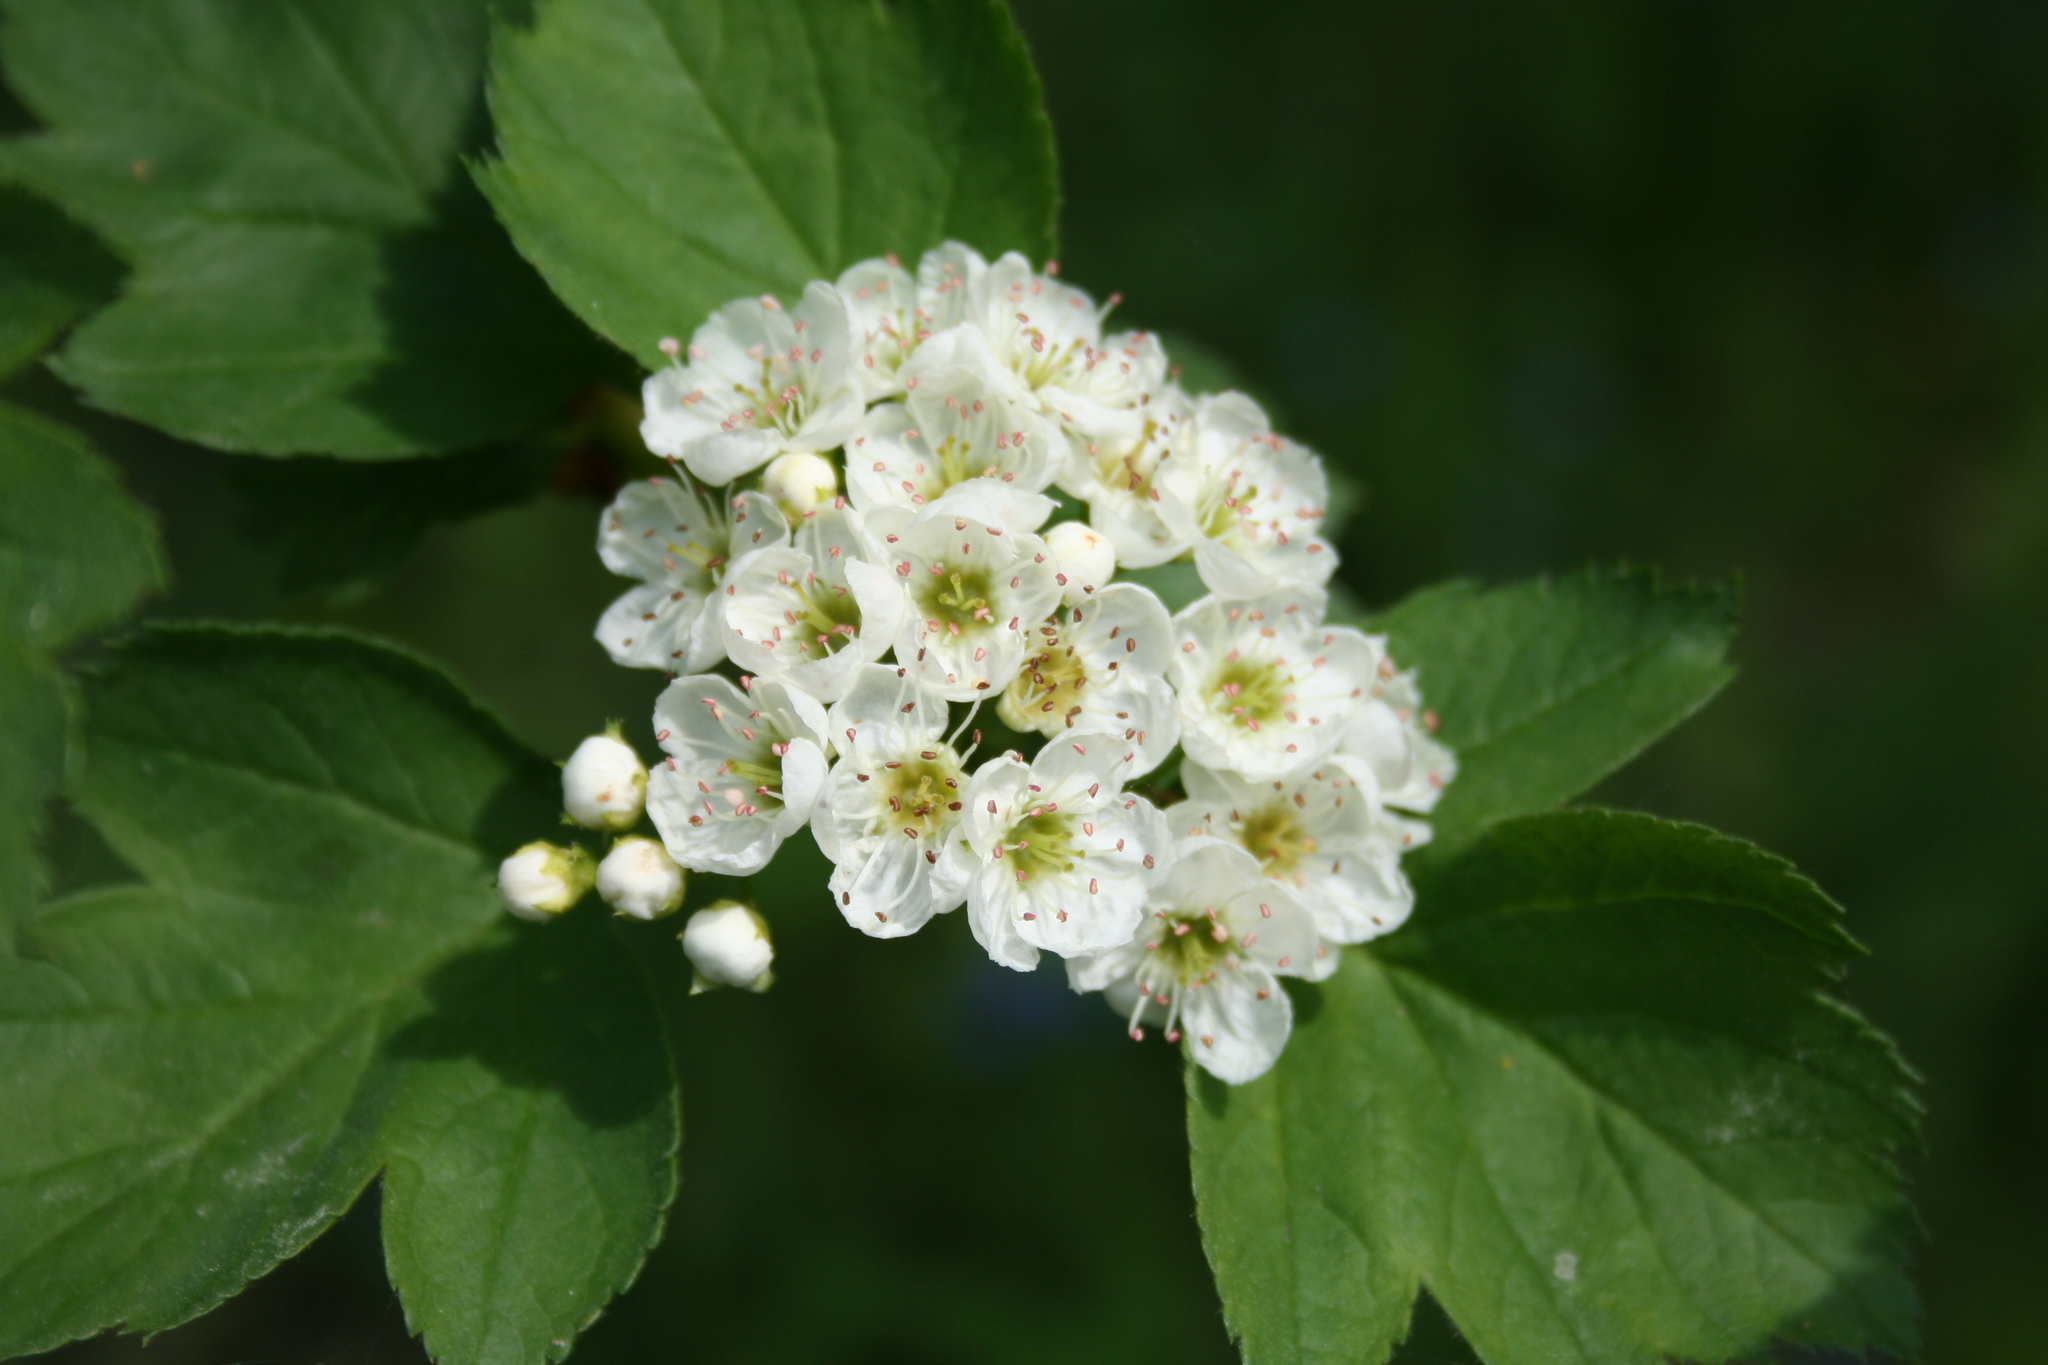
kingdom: Plantae
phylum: Tracheophyta
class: Magnoliopsida
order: Rosales
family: Rosaceae
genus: Crataegus
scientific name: Crataegus sanguinea
